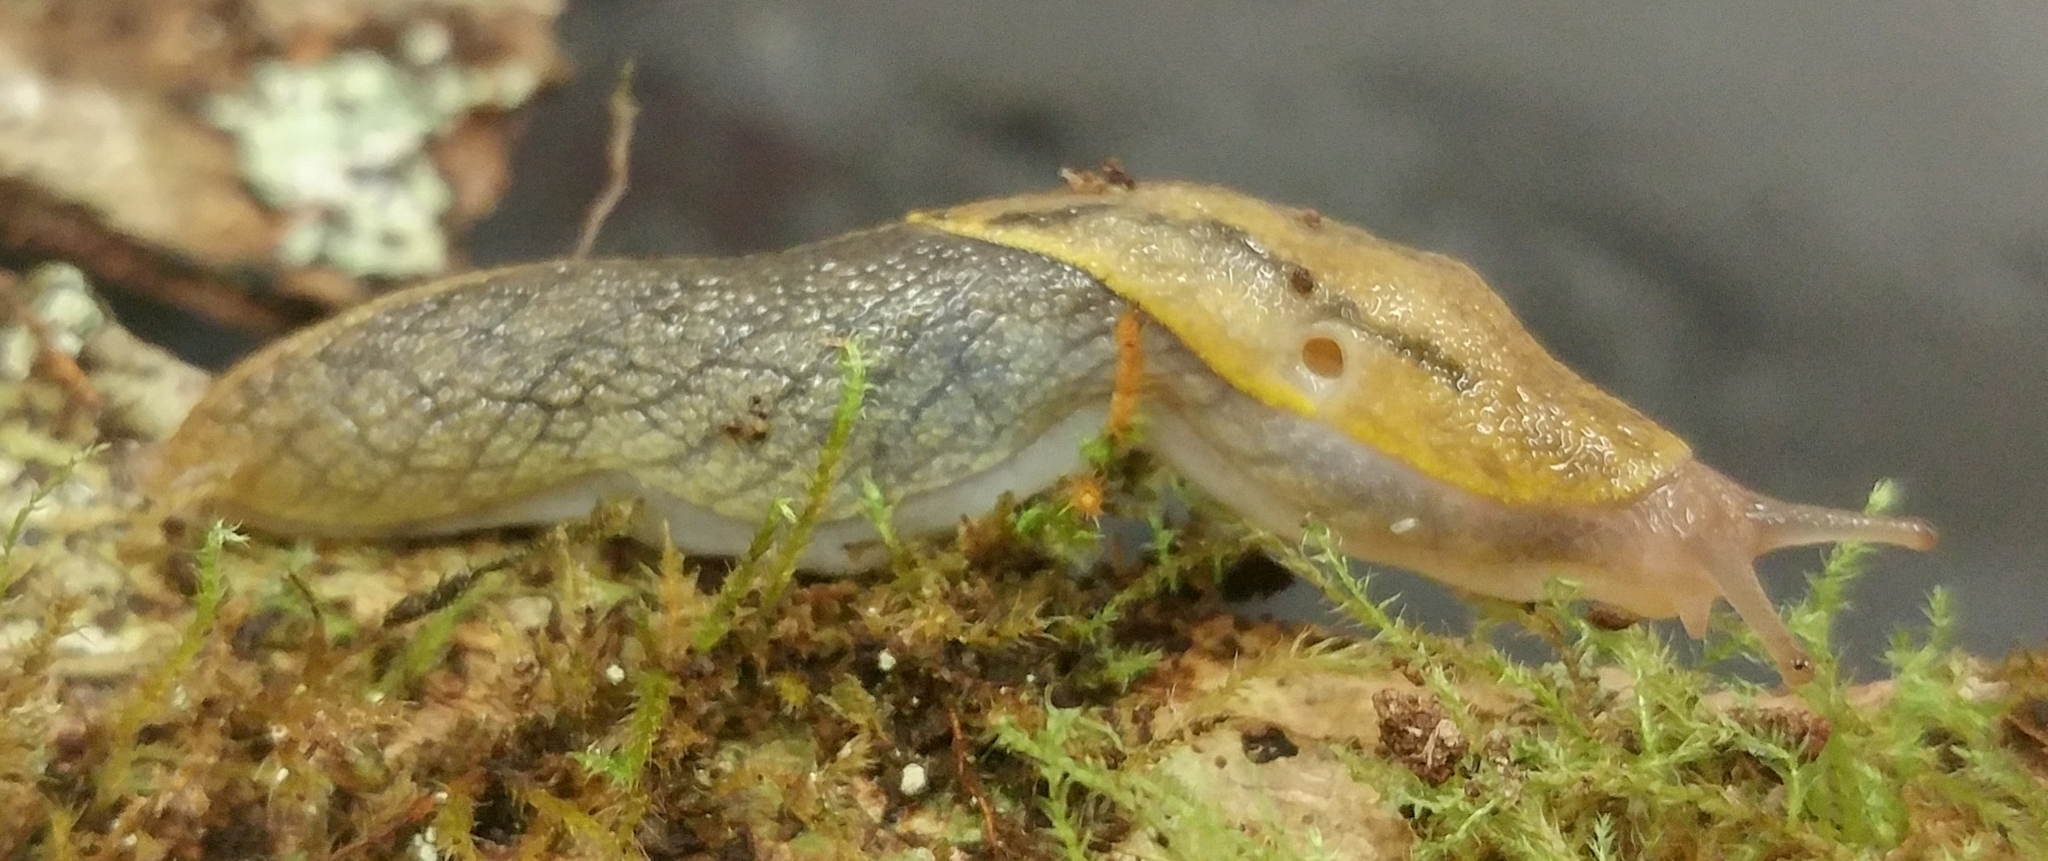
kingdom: Animalia
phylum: Mollusca
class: Gastropoda
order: Stylommatophora
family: Ariolimacidae
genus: Prophysaon
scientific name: Prophysaon foliolatum
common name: Yellow-bordered taildropper
